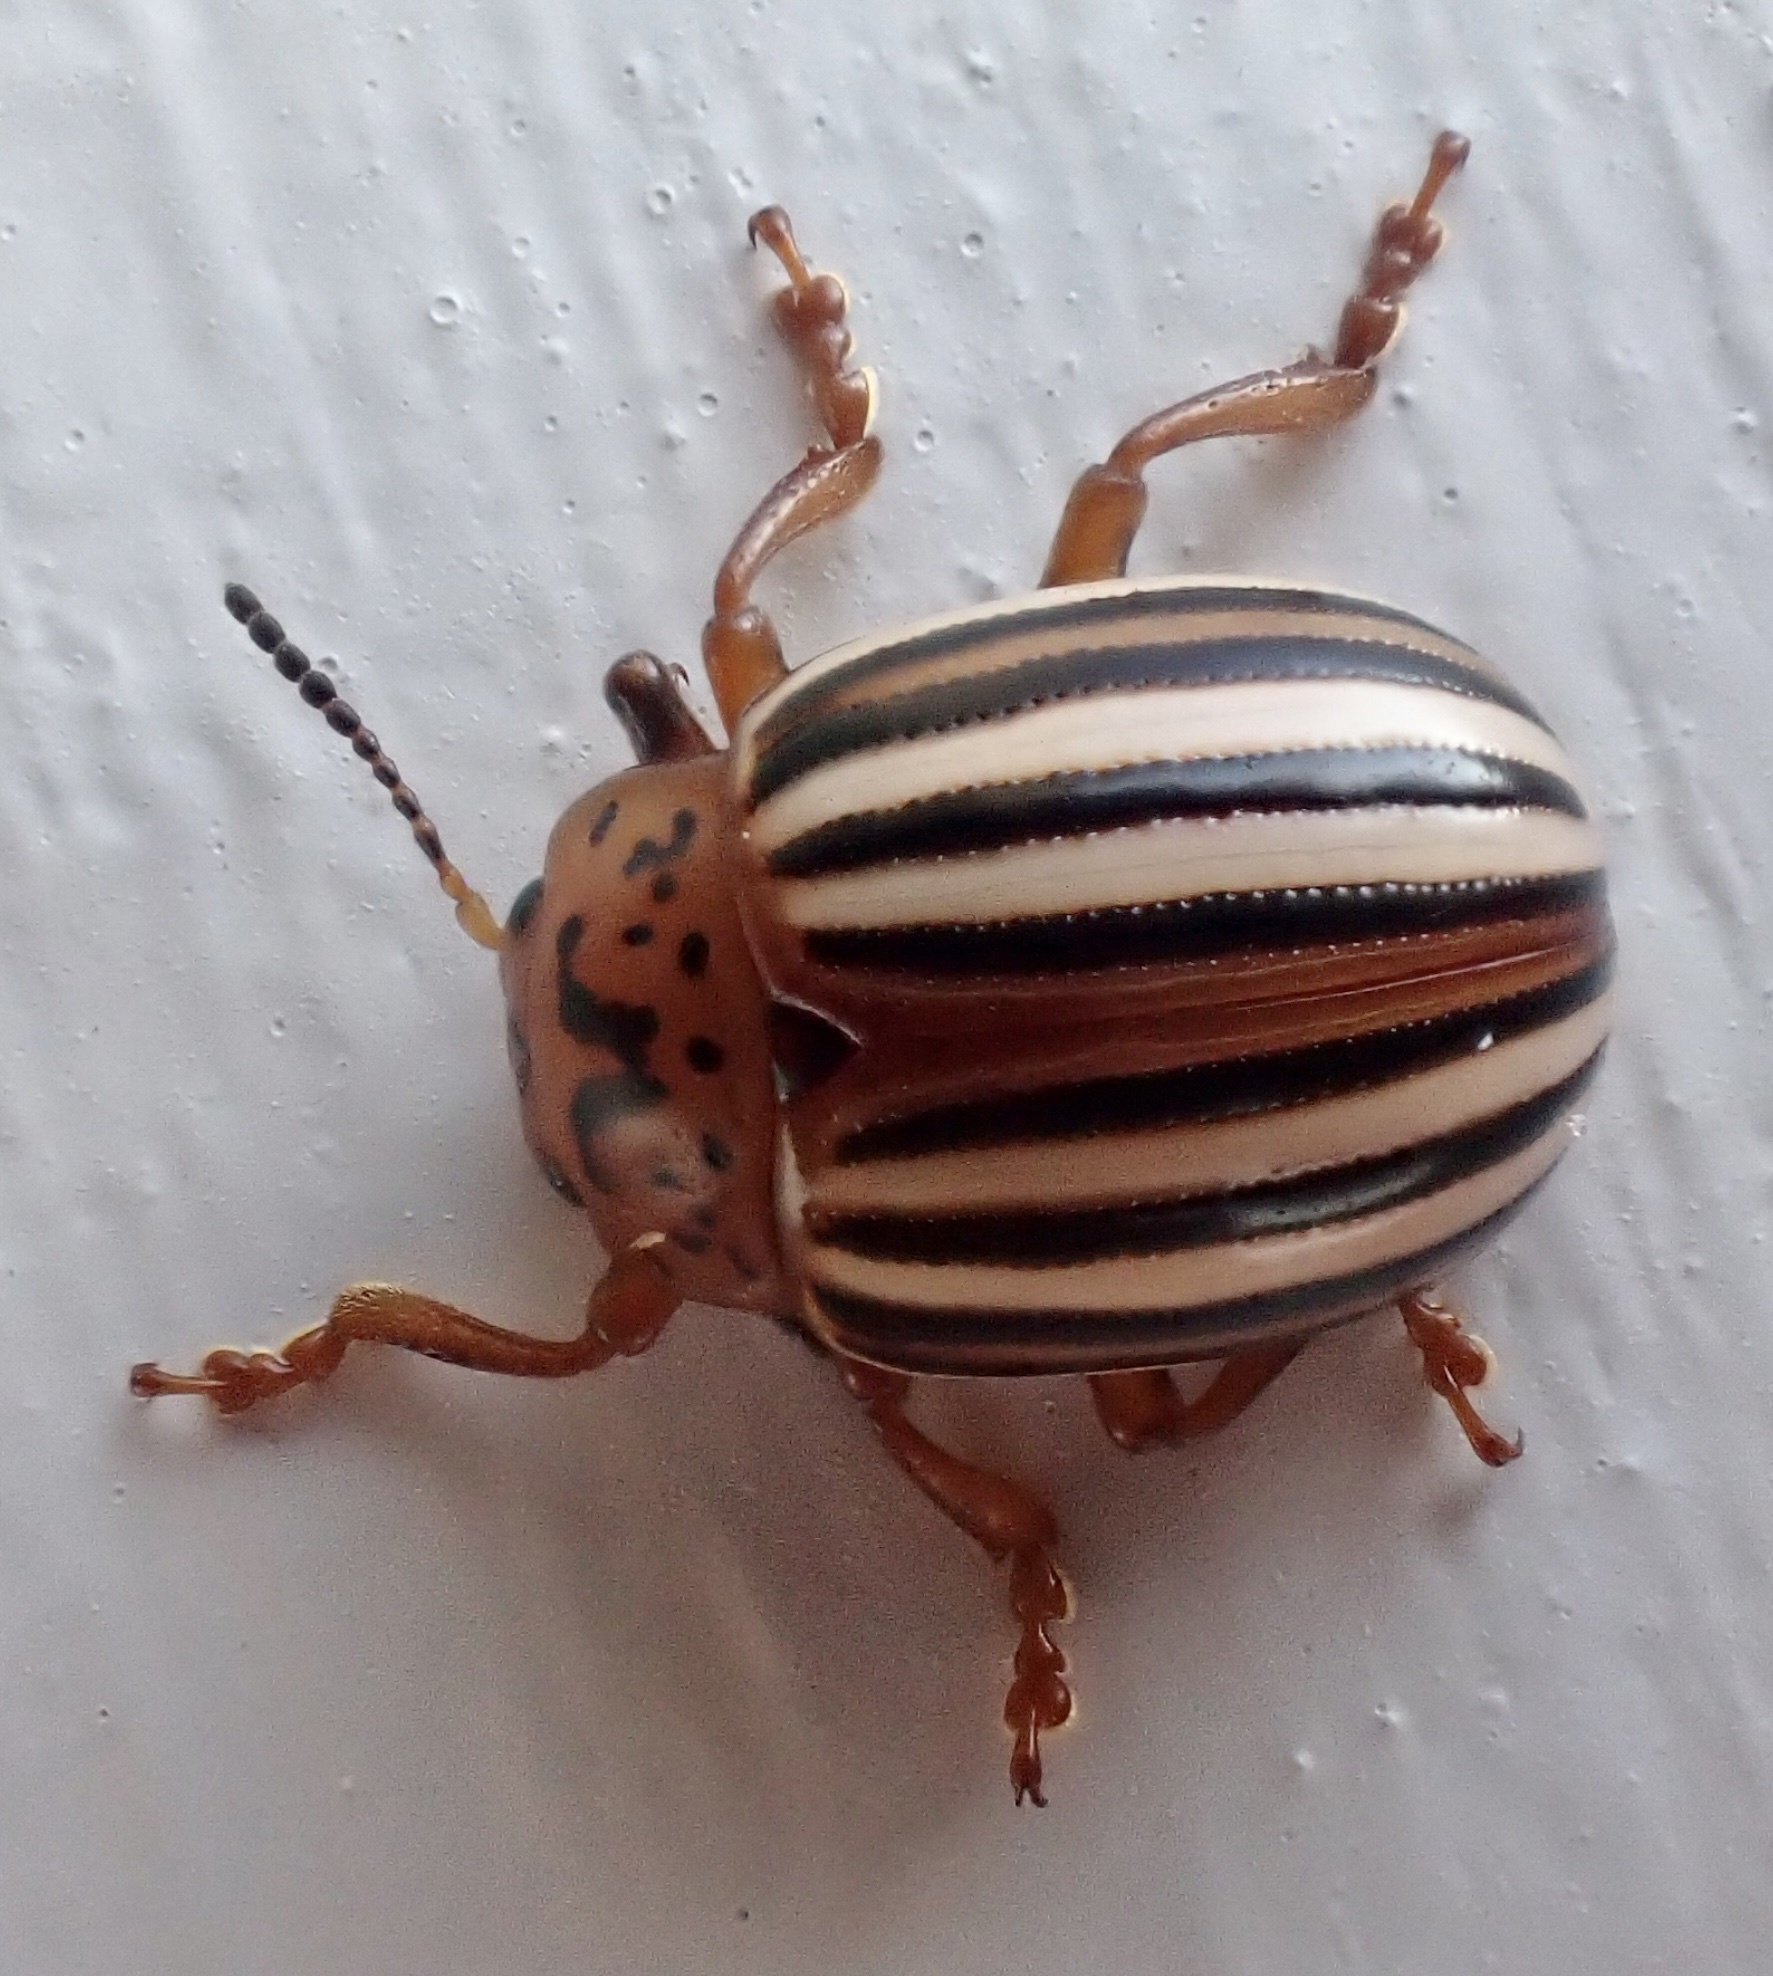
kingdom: Animalia
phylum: Arthropoda
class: Insecta
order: Coleoptera
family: Chrysomelidae
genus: Leptinotarsa
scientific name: Leptinotarsa juncta
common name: False potato beetle
